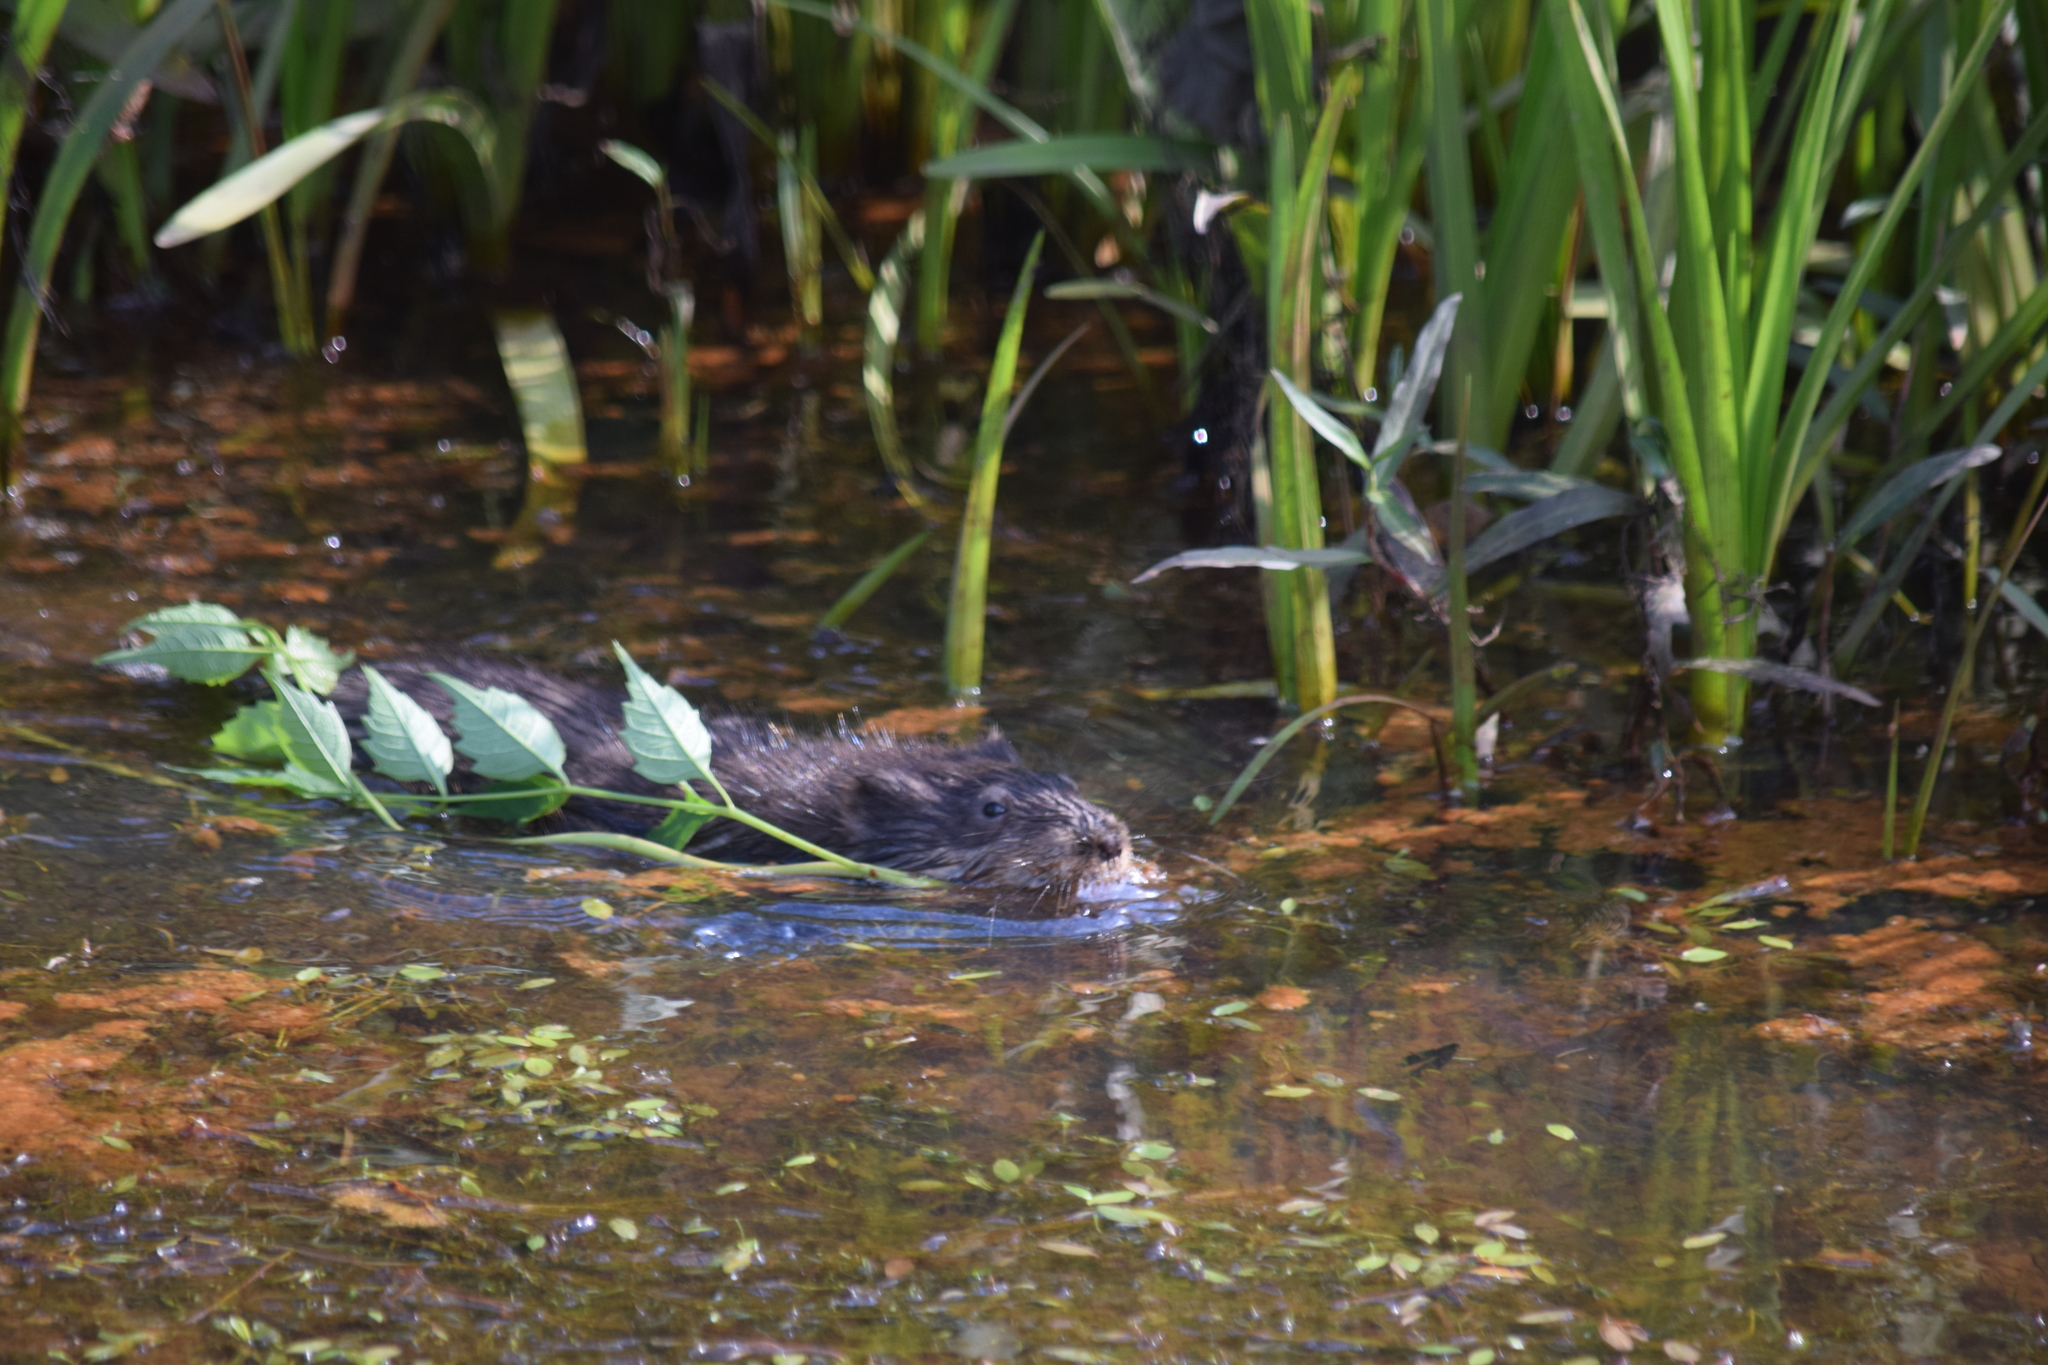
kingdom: Animalia
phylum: Chordata
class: Mammalia
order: Rodentia
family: Cricetidae
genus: Ondatra
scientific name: Ondatra zibethicus
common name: Muskrat
